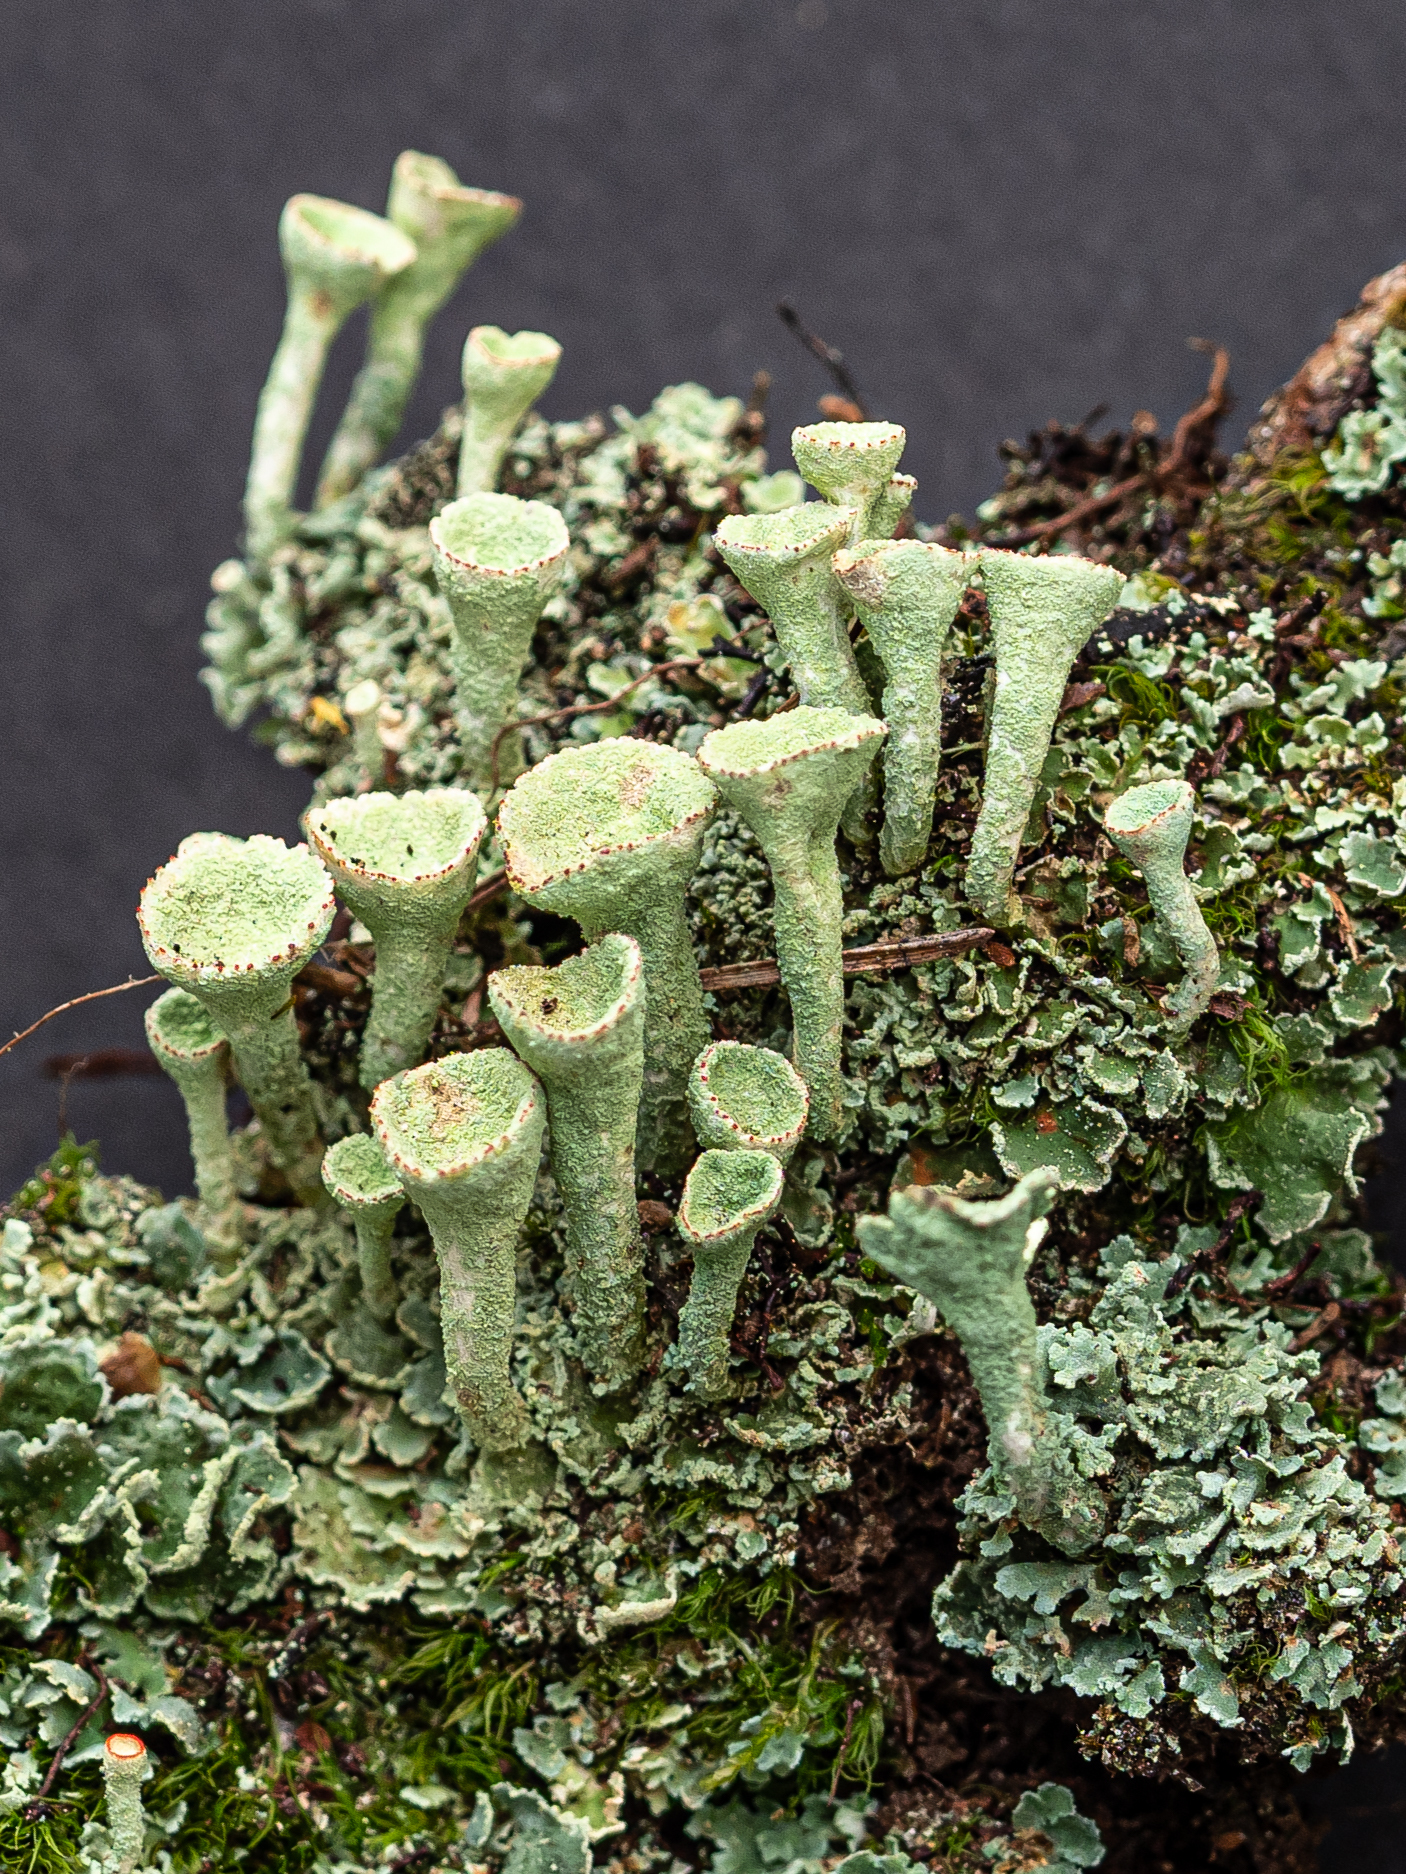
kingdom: Fungi
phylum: Ascomycota
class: Lecanoromycetes
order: Lecanorales
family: Cladoniaceae
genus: Cladonia
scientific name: Cladonia pleurota
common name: Red-fruited pixie cup
